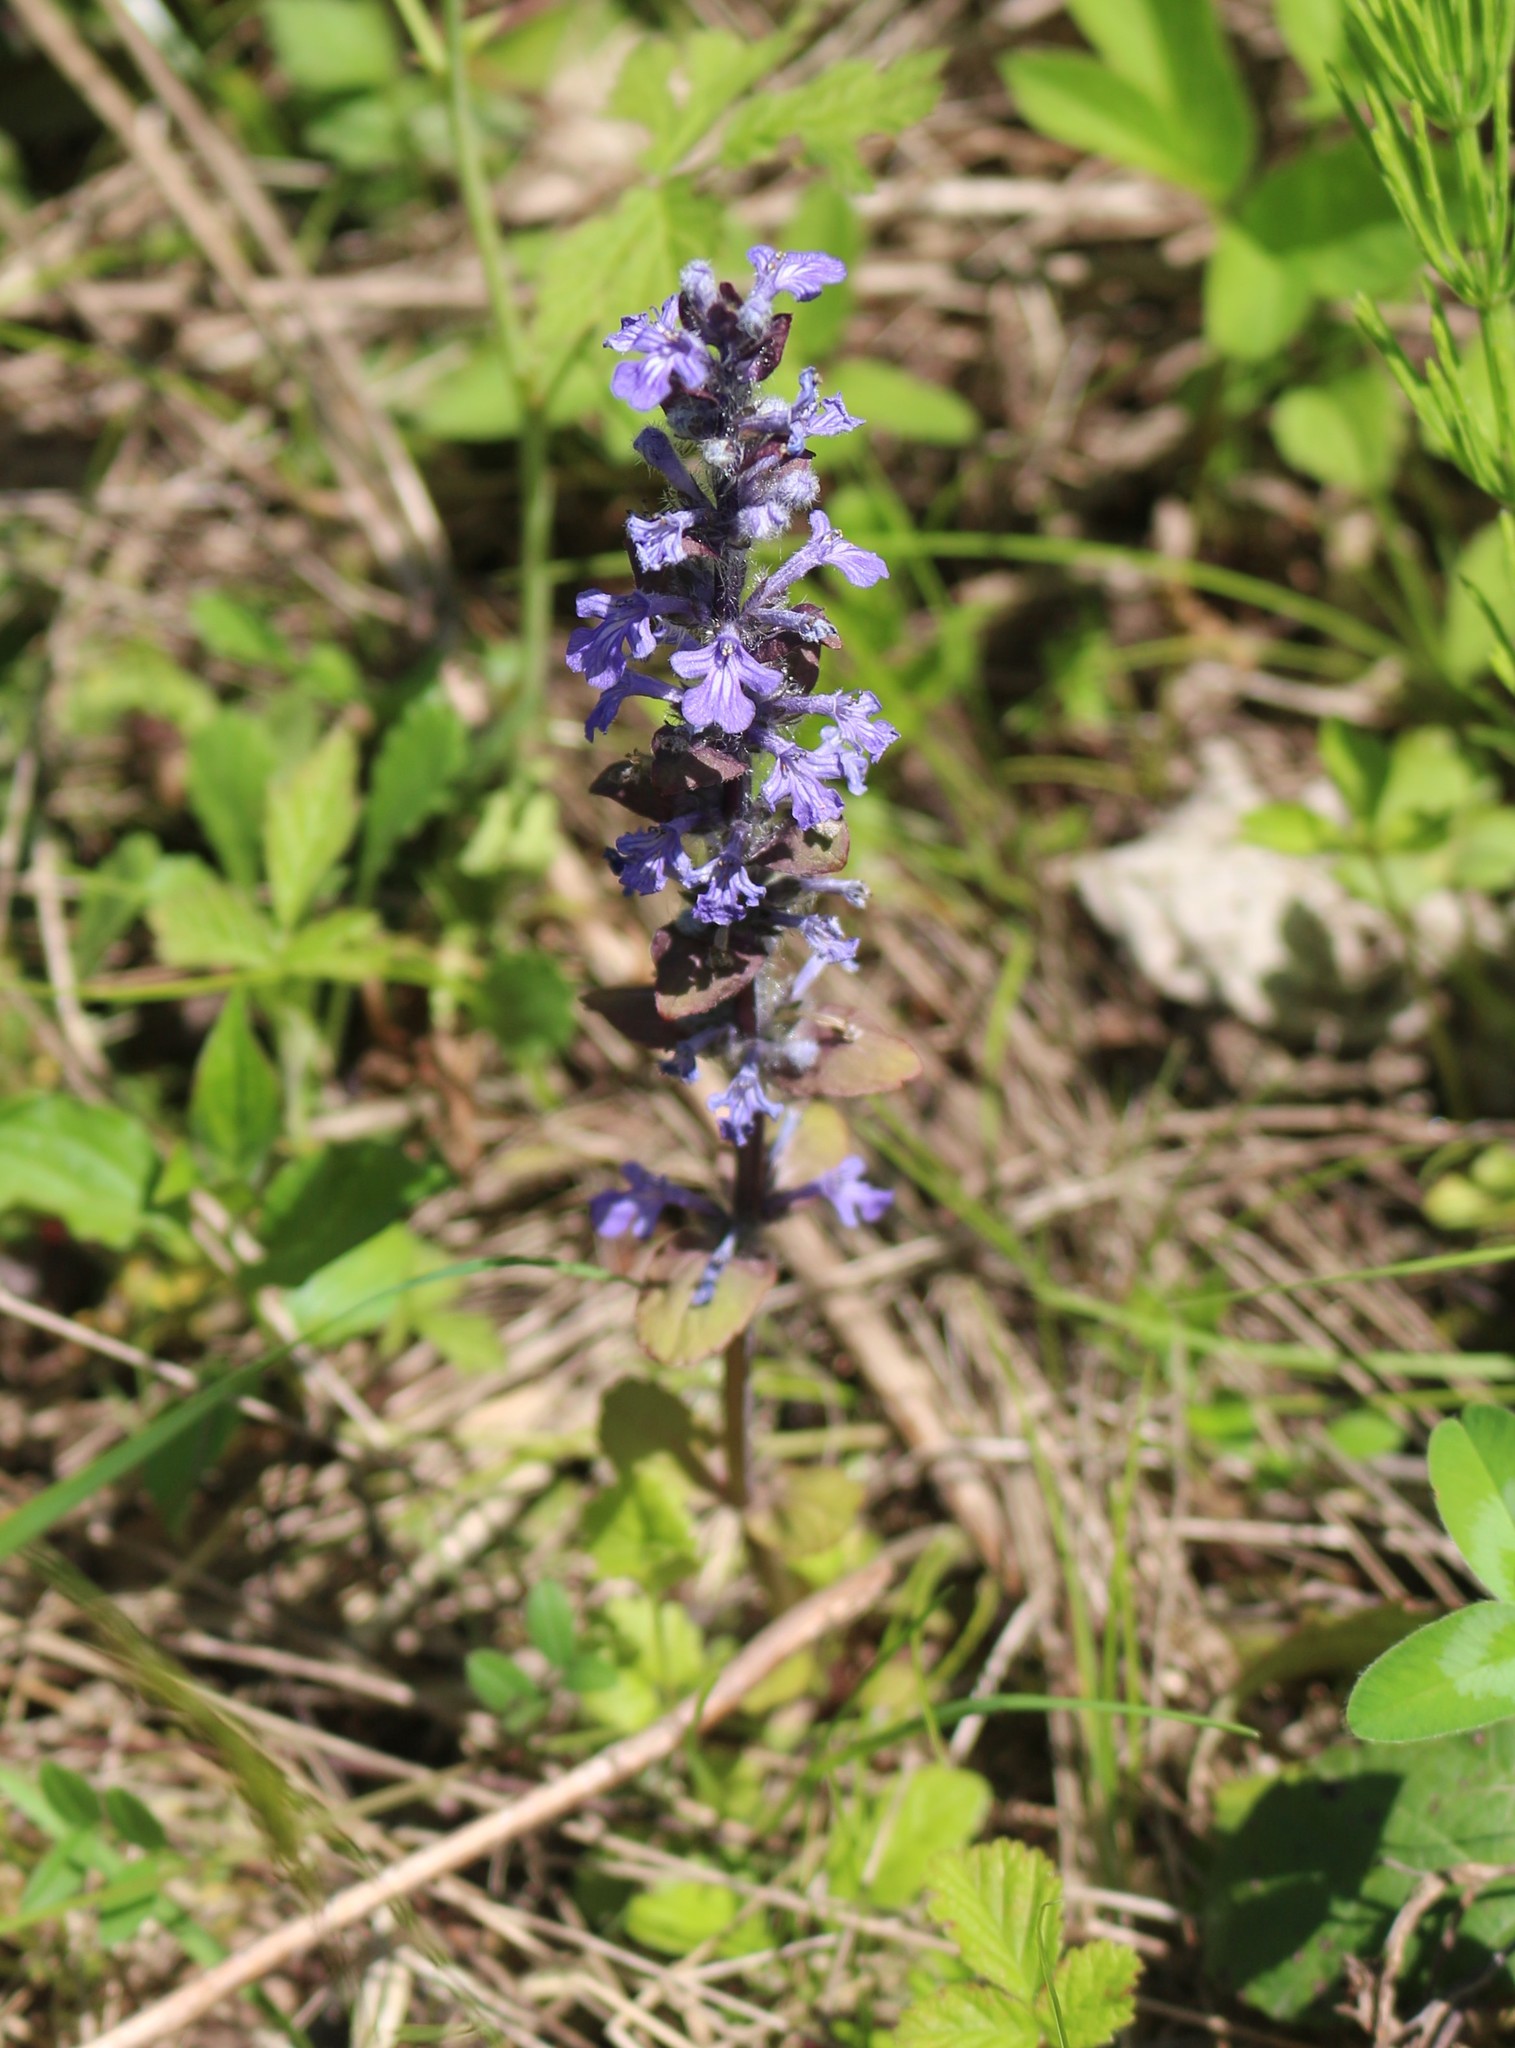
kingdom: Plantae
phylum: Tracheophyta
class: Magnoliopsida
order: Lamiales
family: Lamiaceae
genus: Ajuga
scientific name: Ajuga reptans
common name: Bugle
